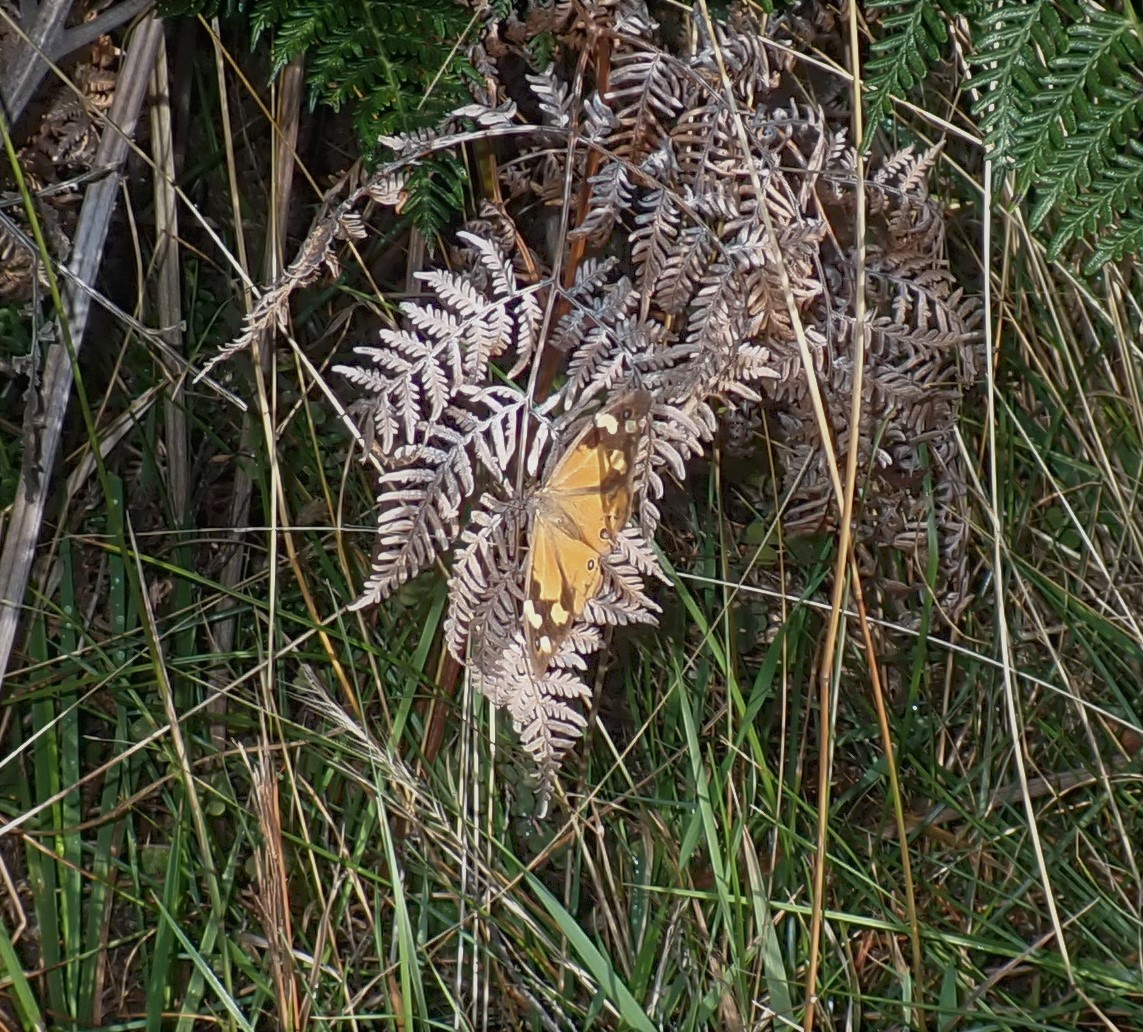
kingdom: Animalia
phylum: Arthropoda
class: Insecta
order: Lepidoptera
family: Nymphalidae
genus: Heteronympha
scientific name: Heteronympha merope
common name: Common brown
